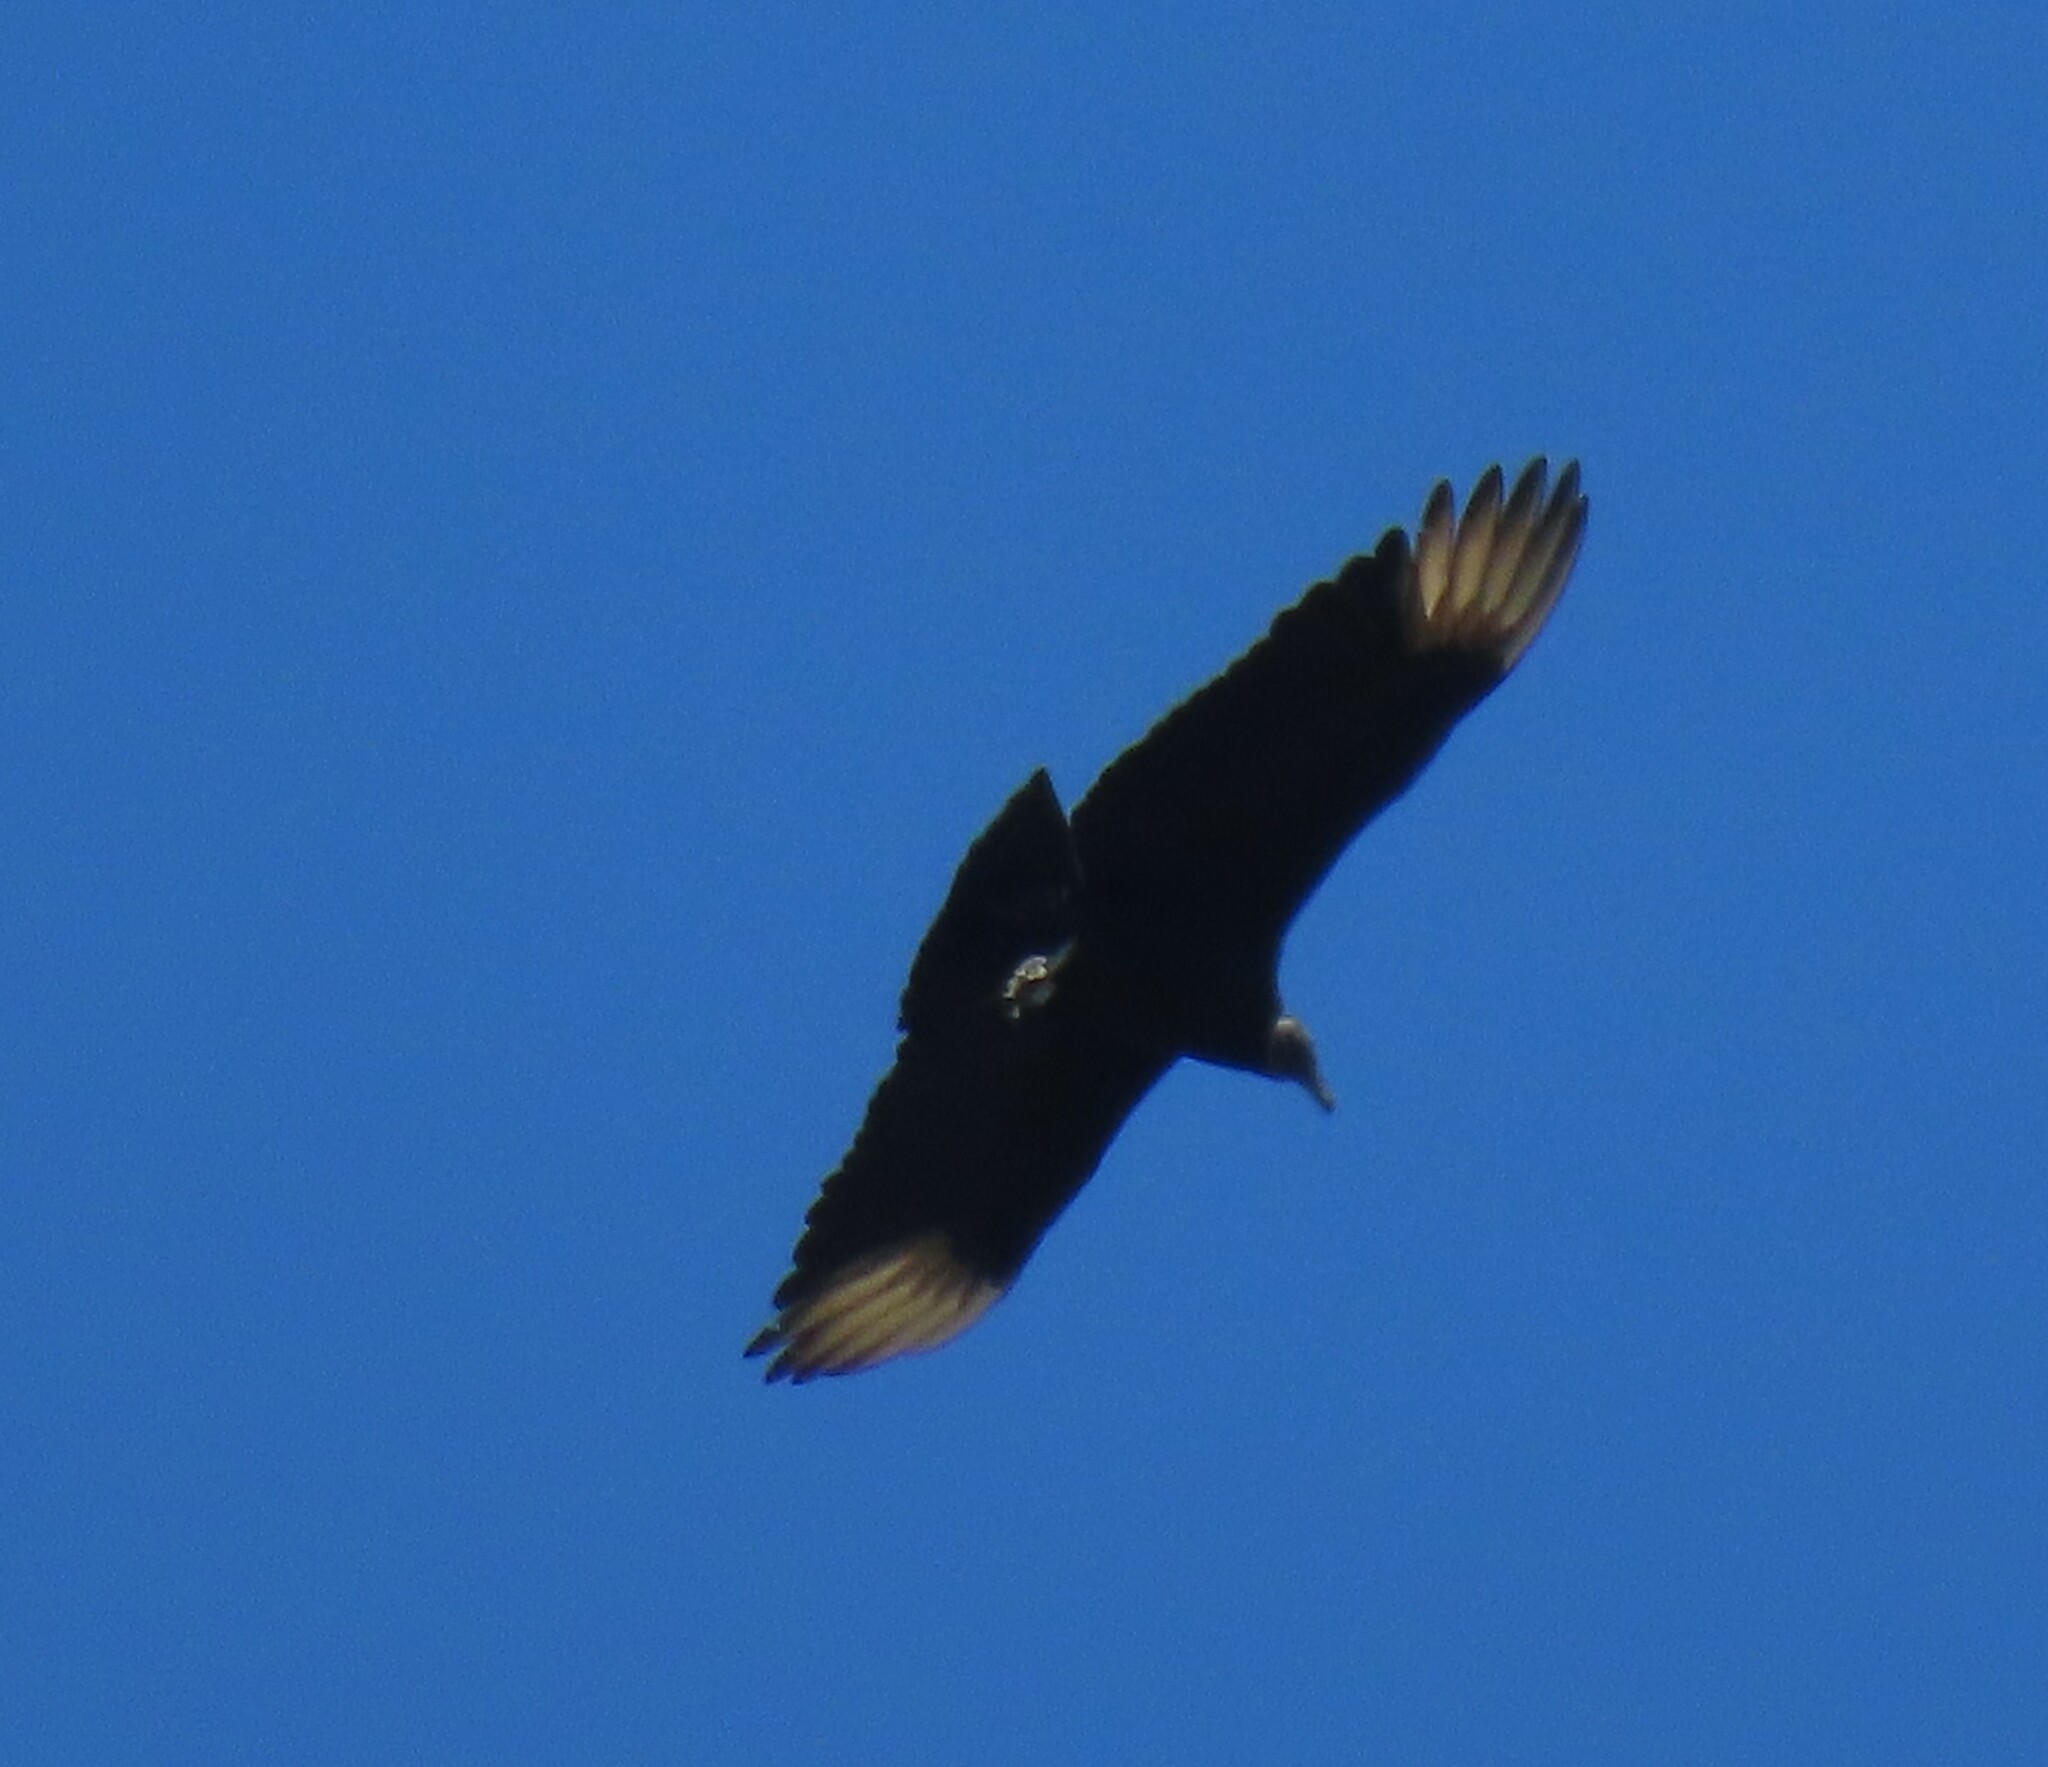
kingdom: Animalia
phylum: Chordata
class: Aves
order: Accipitriformes
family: Cathartidae
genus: Coragyps
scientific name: Coragyps atratus
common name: Black vulture
